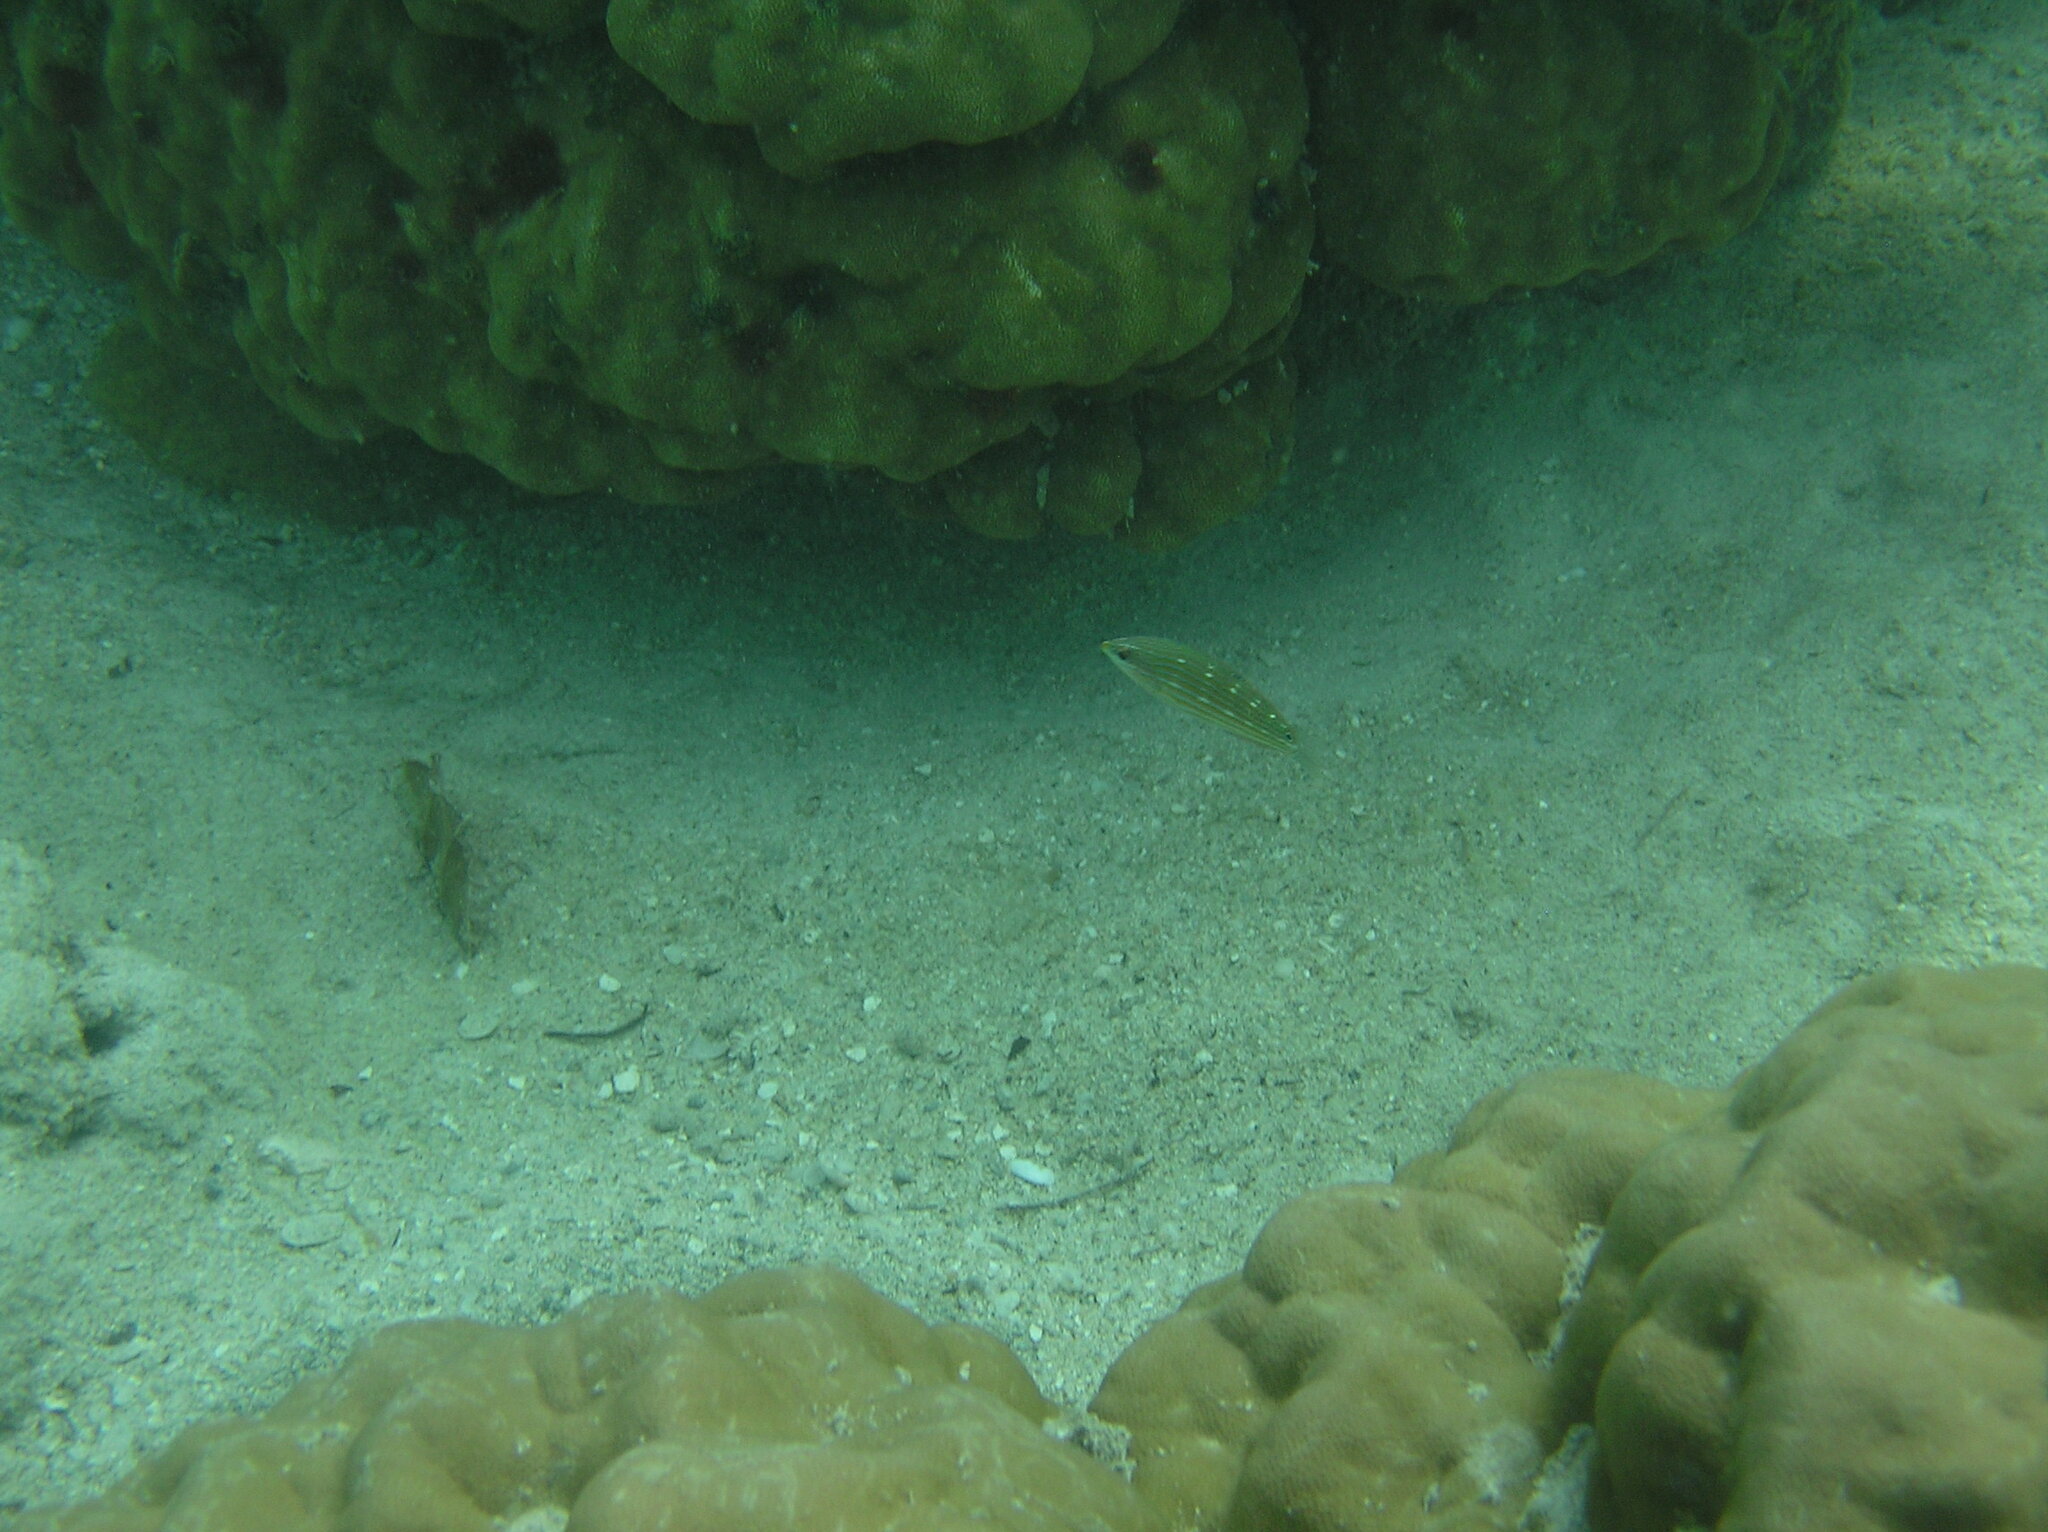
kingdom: Animalia
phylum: Chordata
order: Perciformes
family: Labridae
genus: Halichoeres
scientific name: Halichoeres
